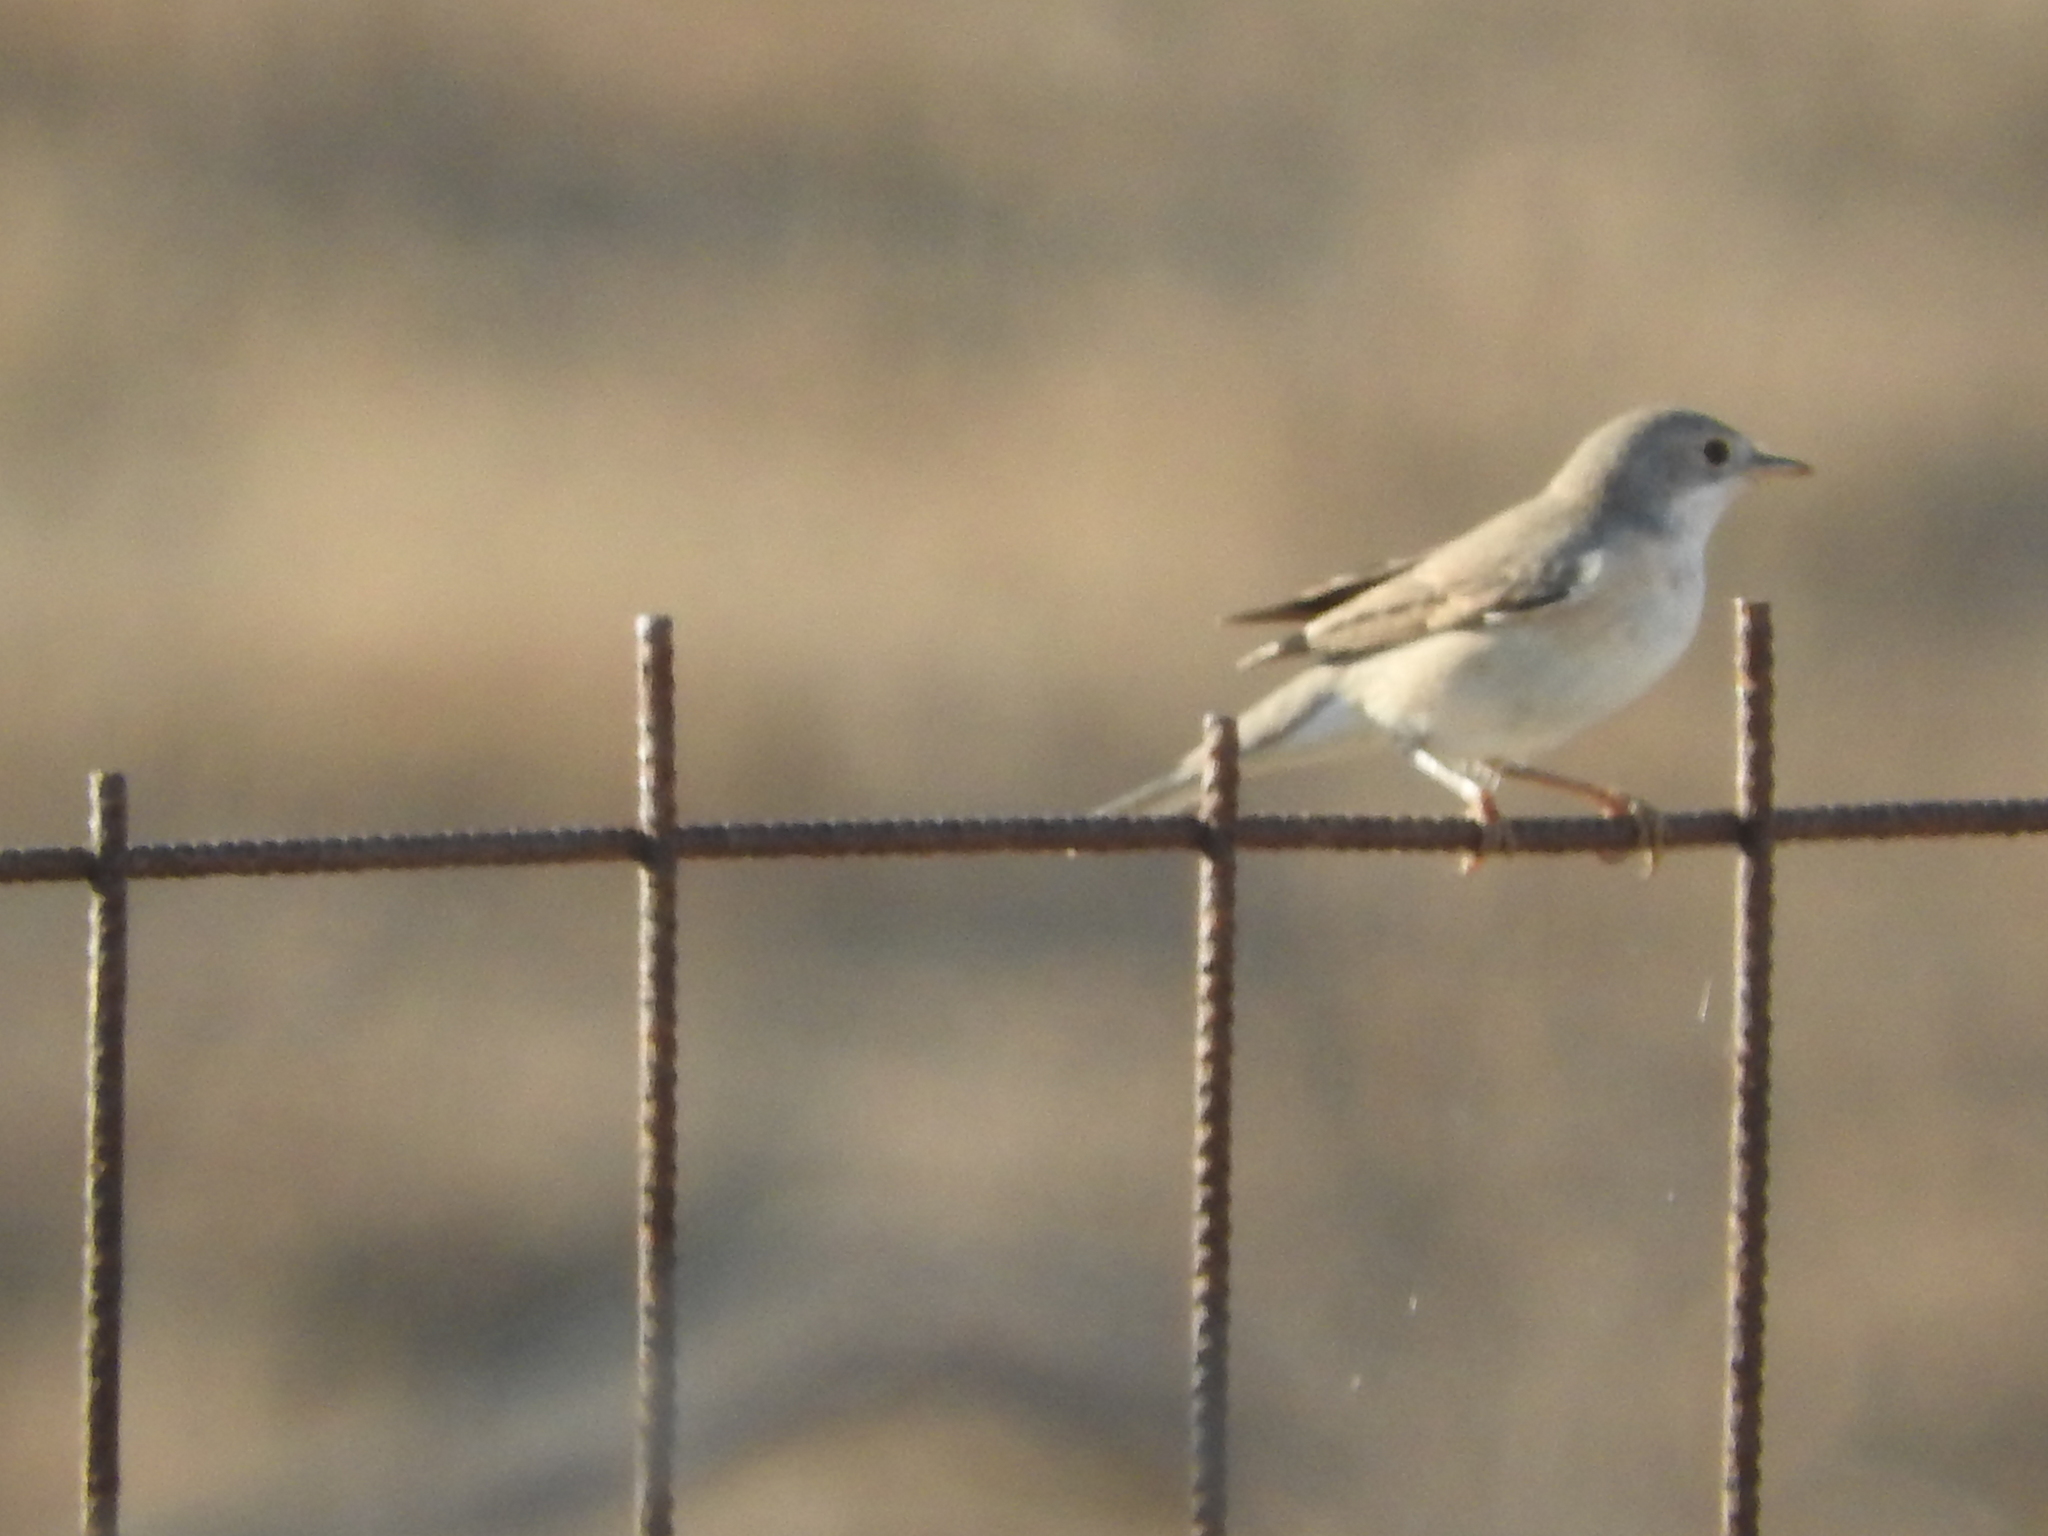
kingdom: Animalia
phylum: Chordata
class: Aves
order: Passeriformes
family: Sylviidae
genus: Curruca
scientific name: Curruca cantillans
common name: Subalpine warbler
